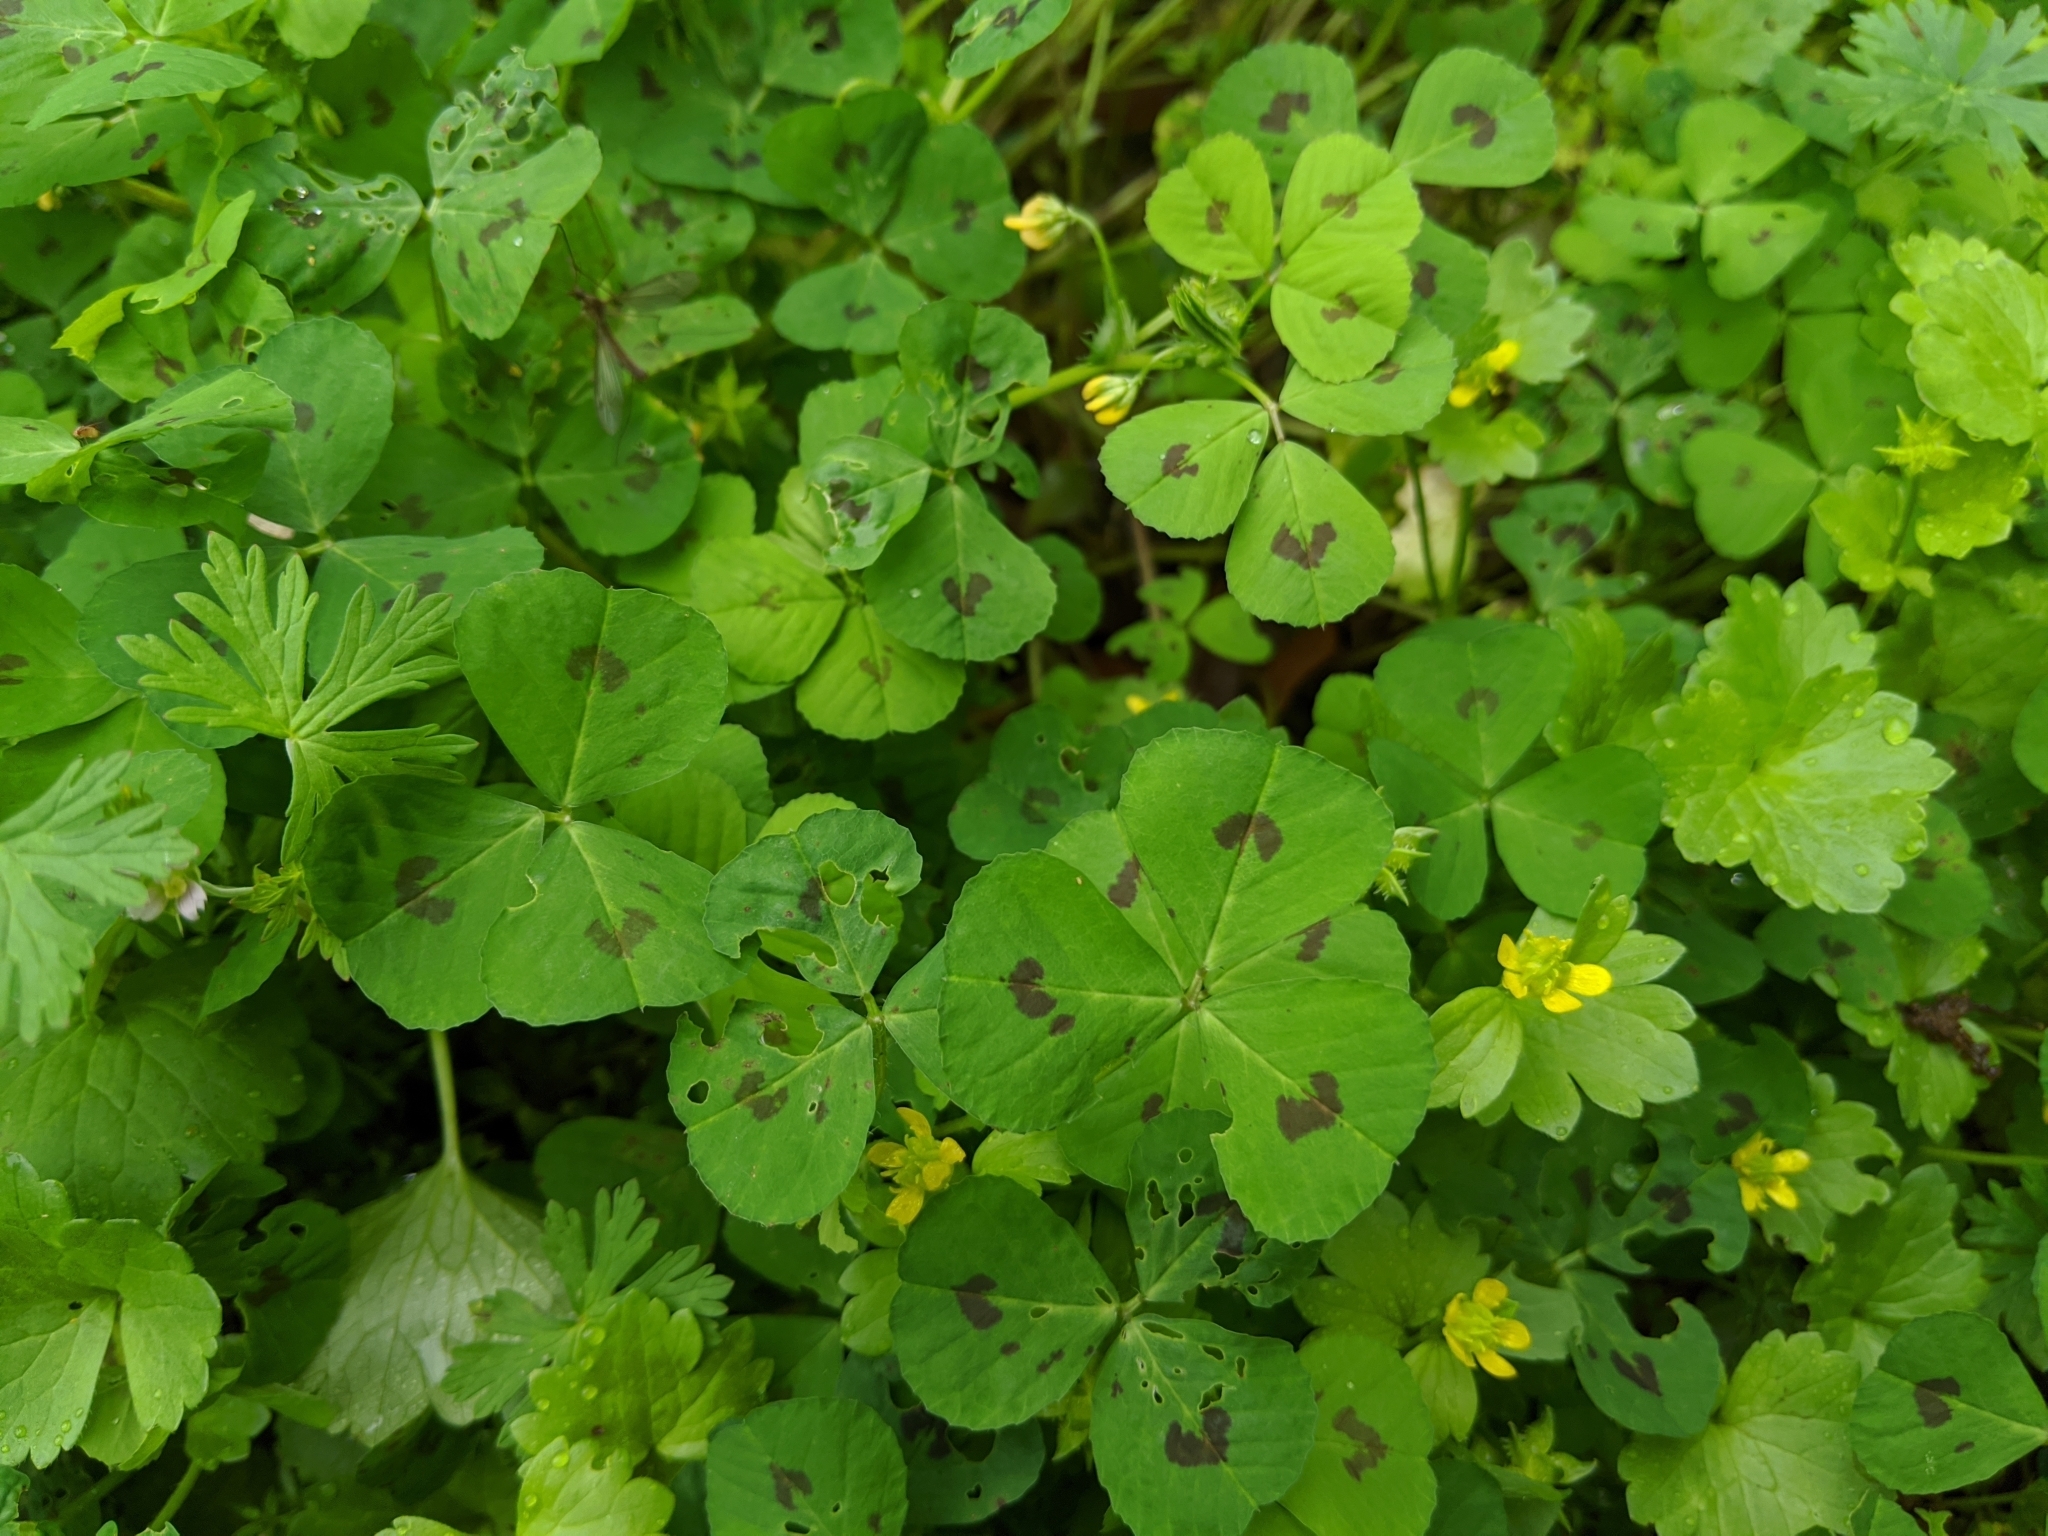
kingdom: Plantae
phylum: Tracheophyta
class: Magnoliopsida
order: Fabales
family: Fabaceae
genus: Medicago
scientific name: Medicago arabica
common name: Spotted medick
